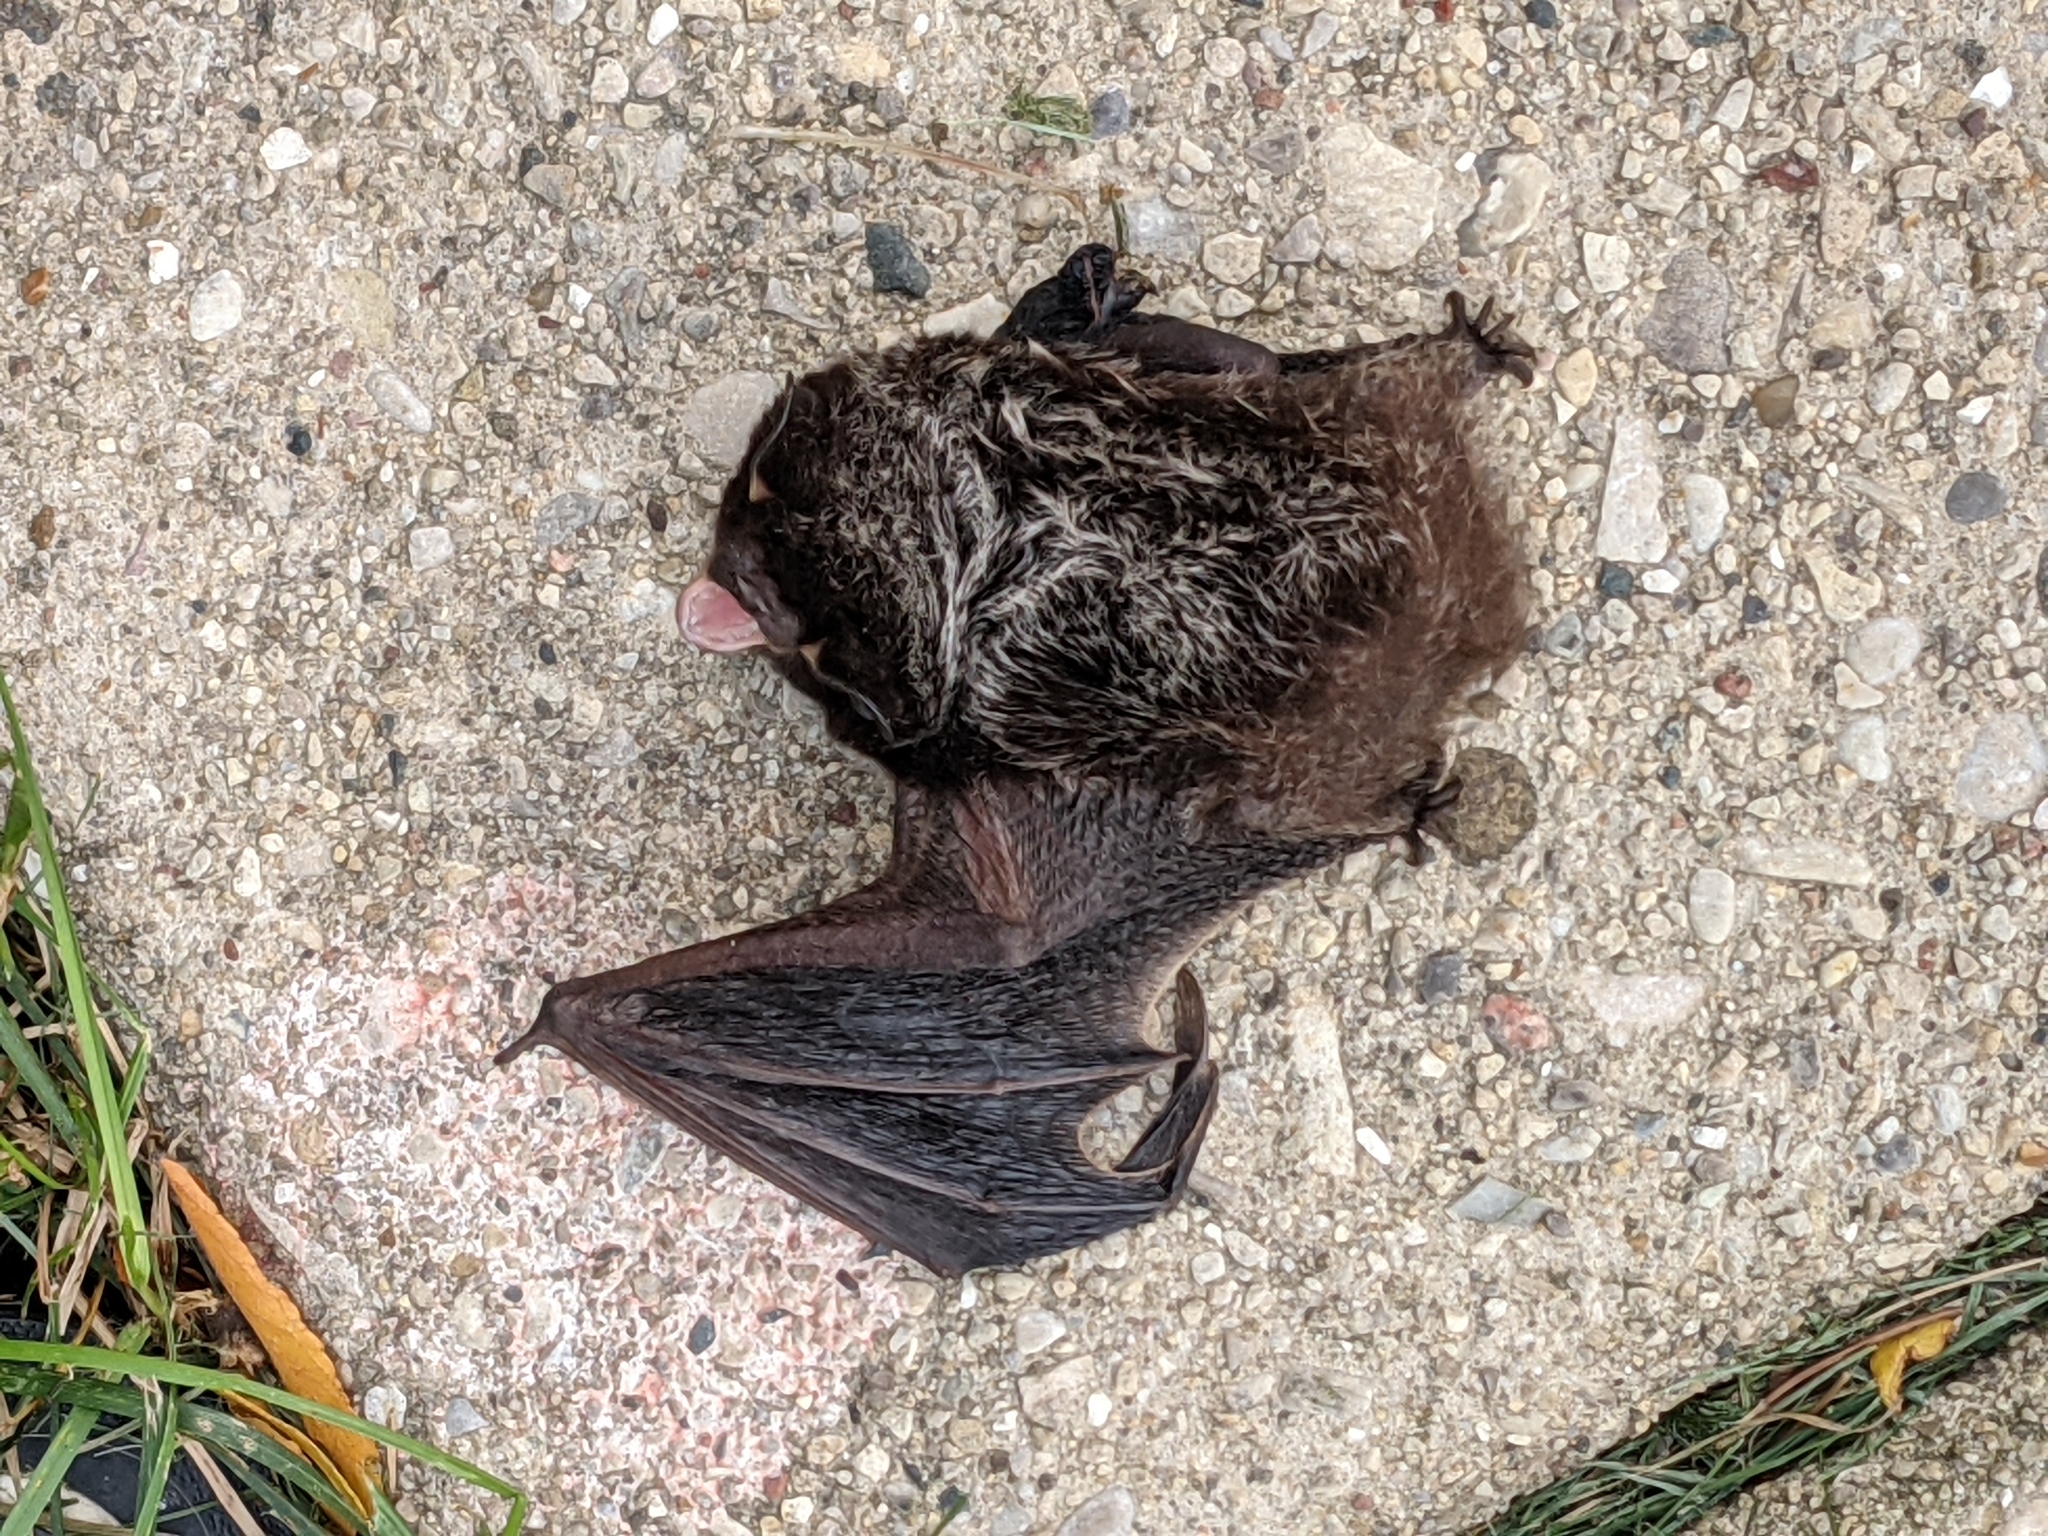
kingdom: Animalia
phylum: Chordata
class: Mammalia
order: Chiroptera
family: Vespertilionidae
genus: Lasionycteris
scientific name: Lasionycteris noctivagans
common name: Silver-haired bat
